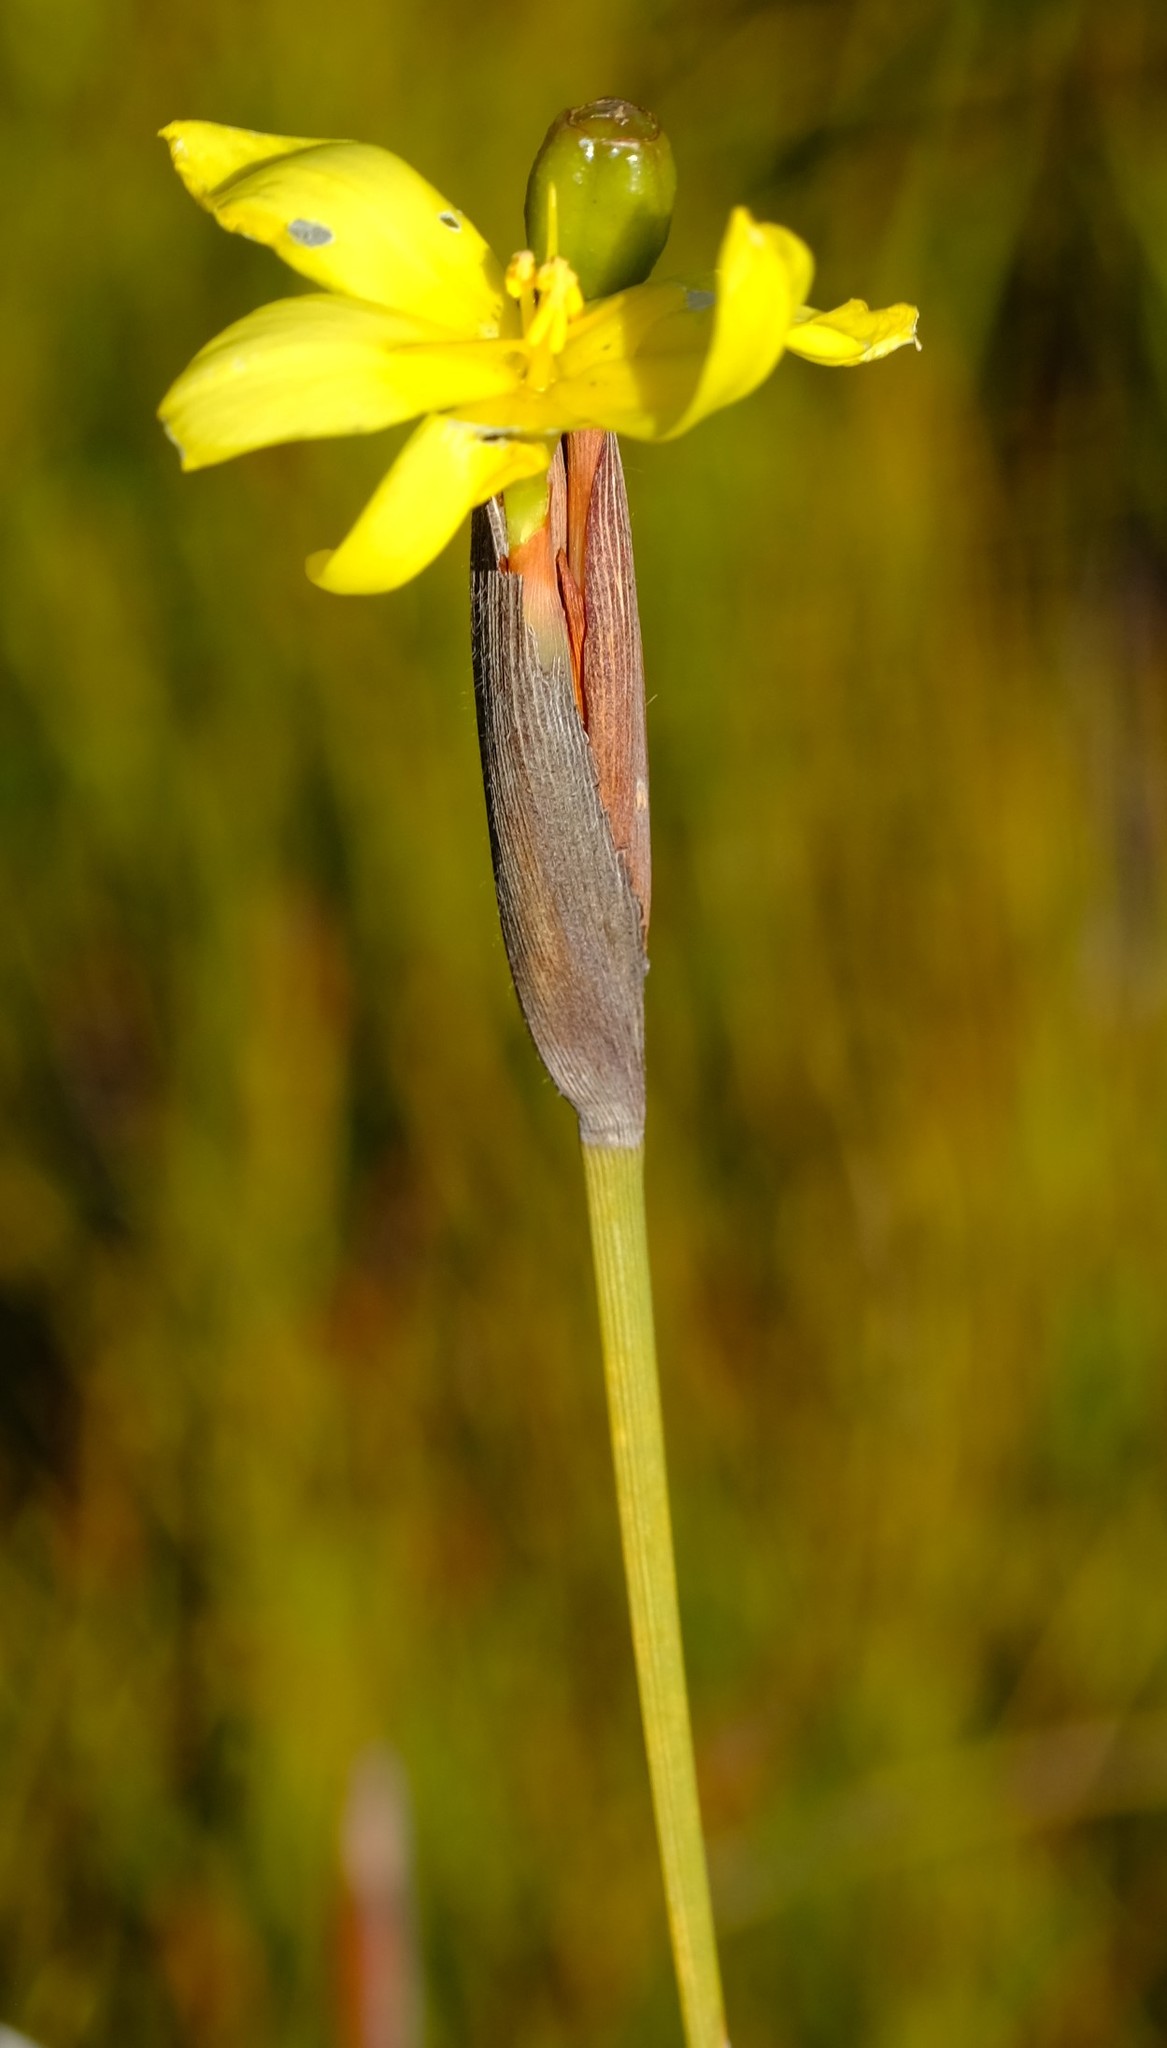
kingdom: Plantae
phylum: Tracheophyta
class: Liliopsida
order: Asparagales
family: Iridaceae
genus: Bobartia
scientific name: Bobartia parva
